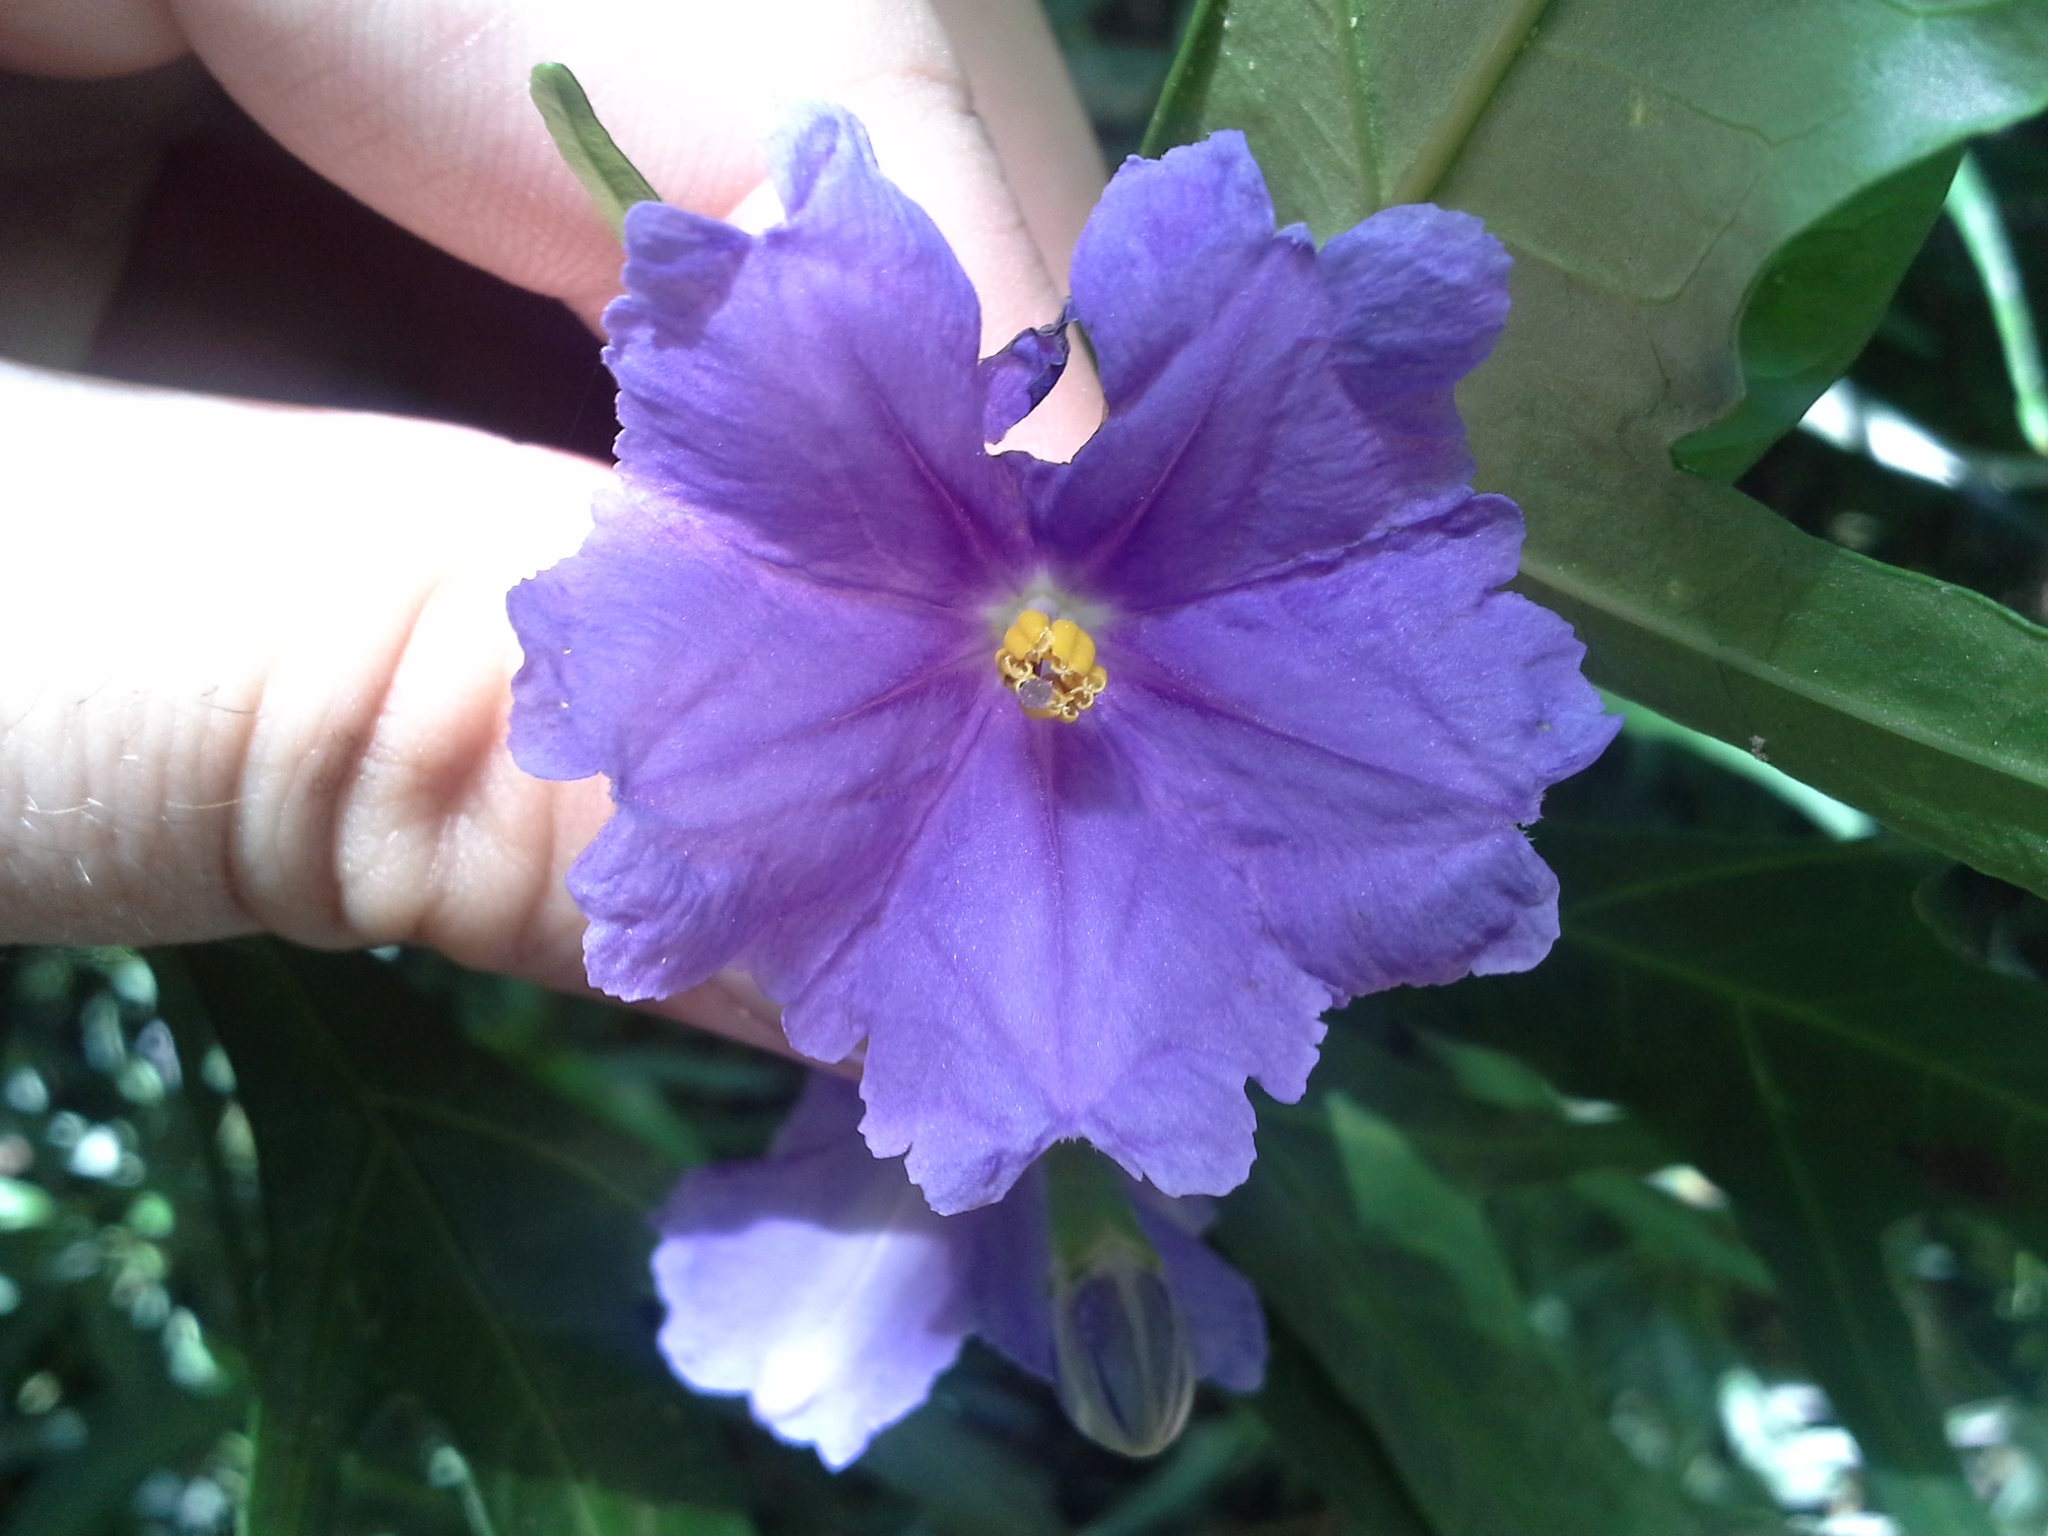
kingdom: Plantae
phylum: Tracheophyta
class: Magnoliopsida
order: Solanales
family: Solanaceae
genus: Solanum
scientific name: Solanum laciniatum
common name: Kangaroo-apple
